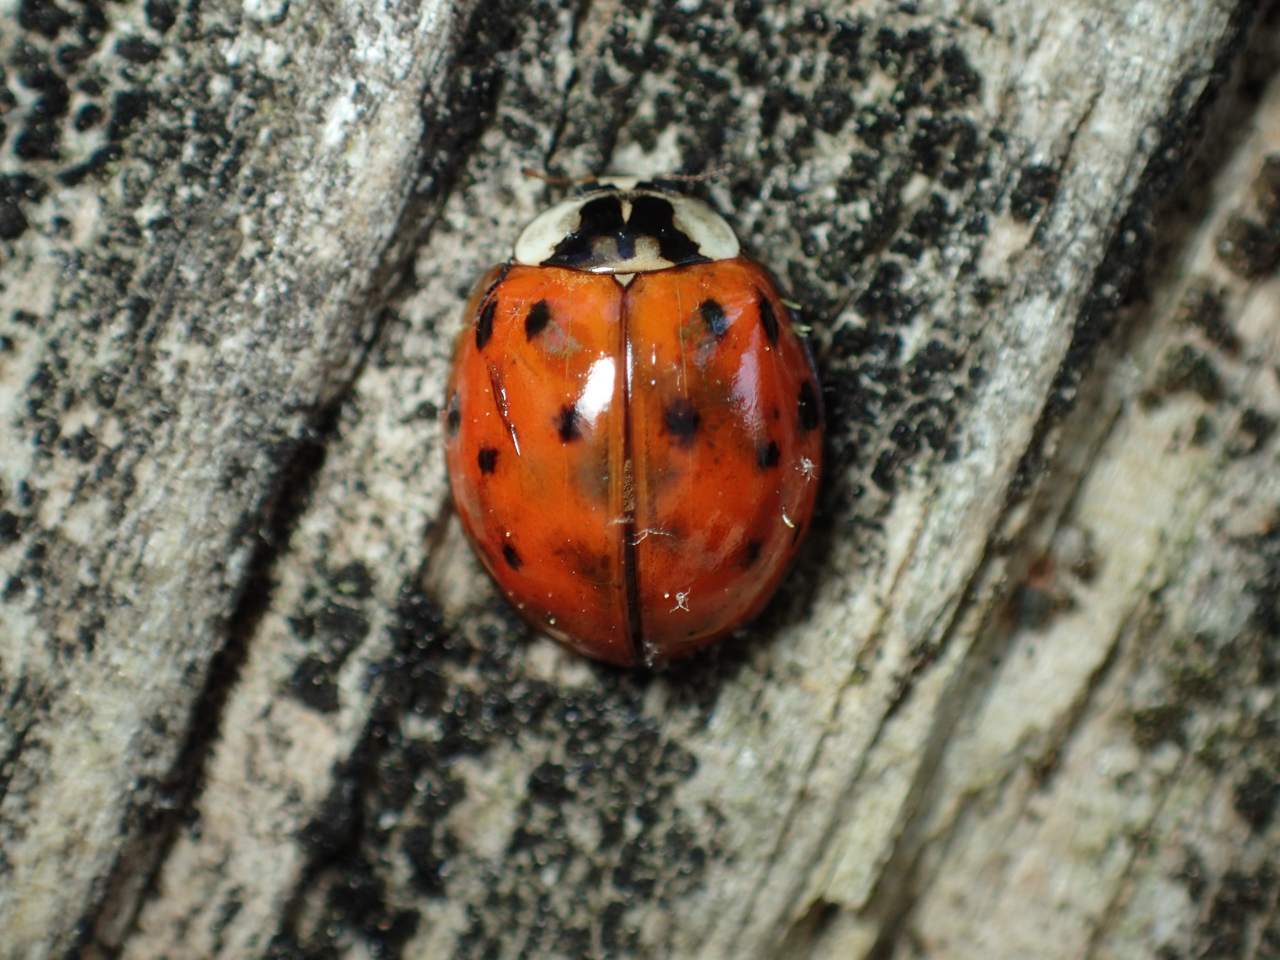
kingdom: Animalia
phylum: Arthropoda
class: Insecta
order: Coleoptera
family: Coccinellidae
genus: Harmonia
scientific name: Harmonia axyridis
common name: Harlequin ladybird
